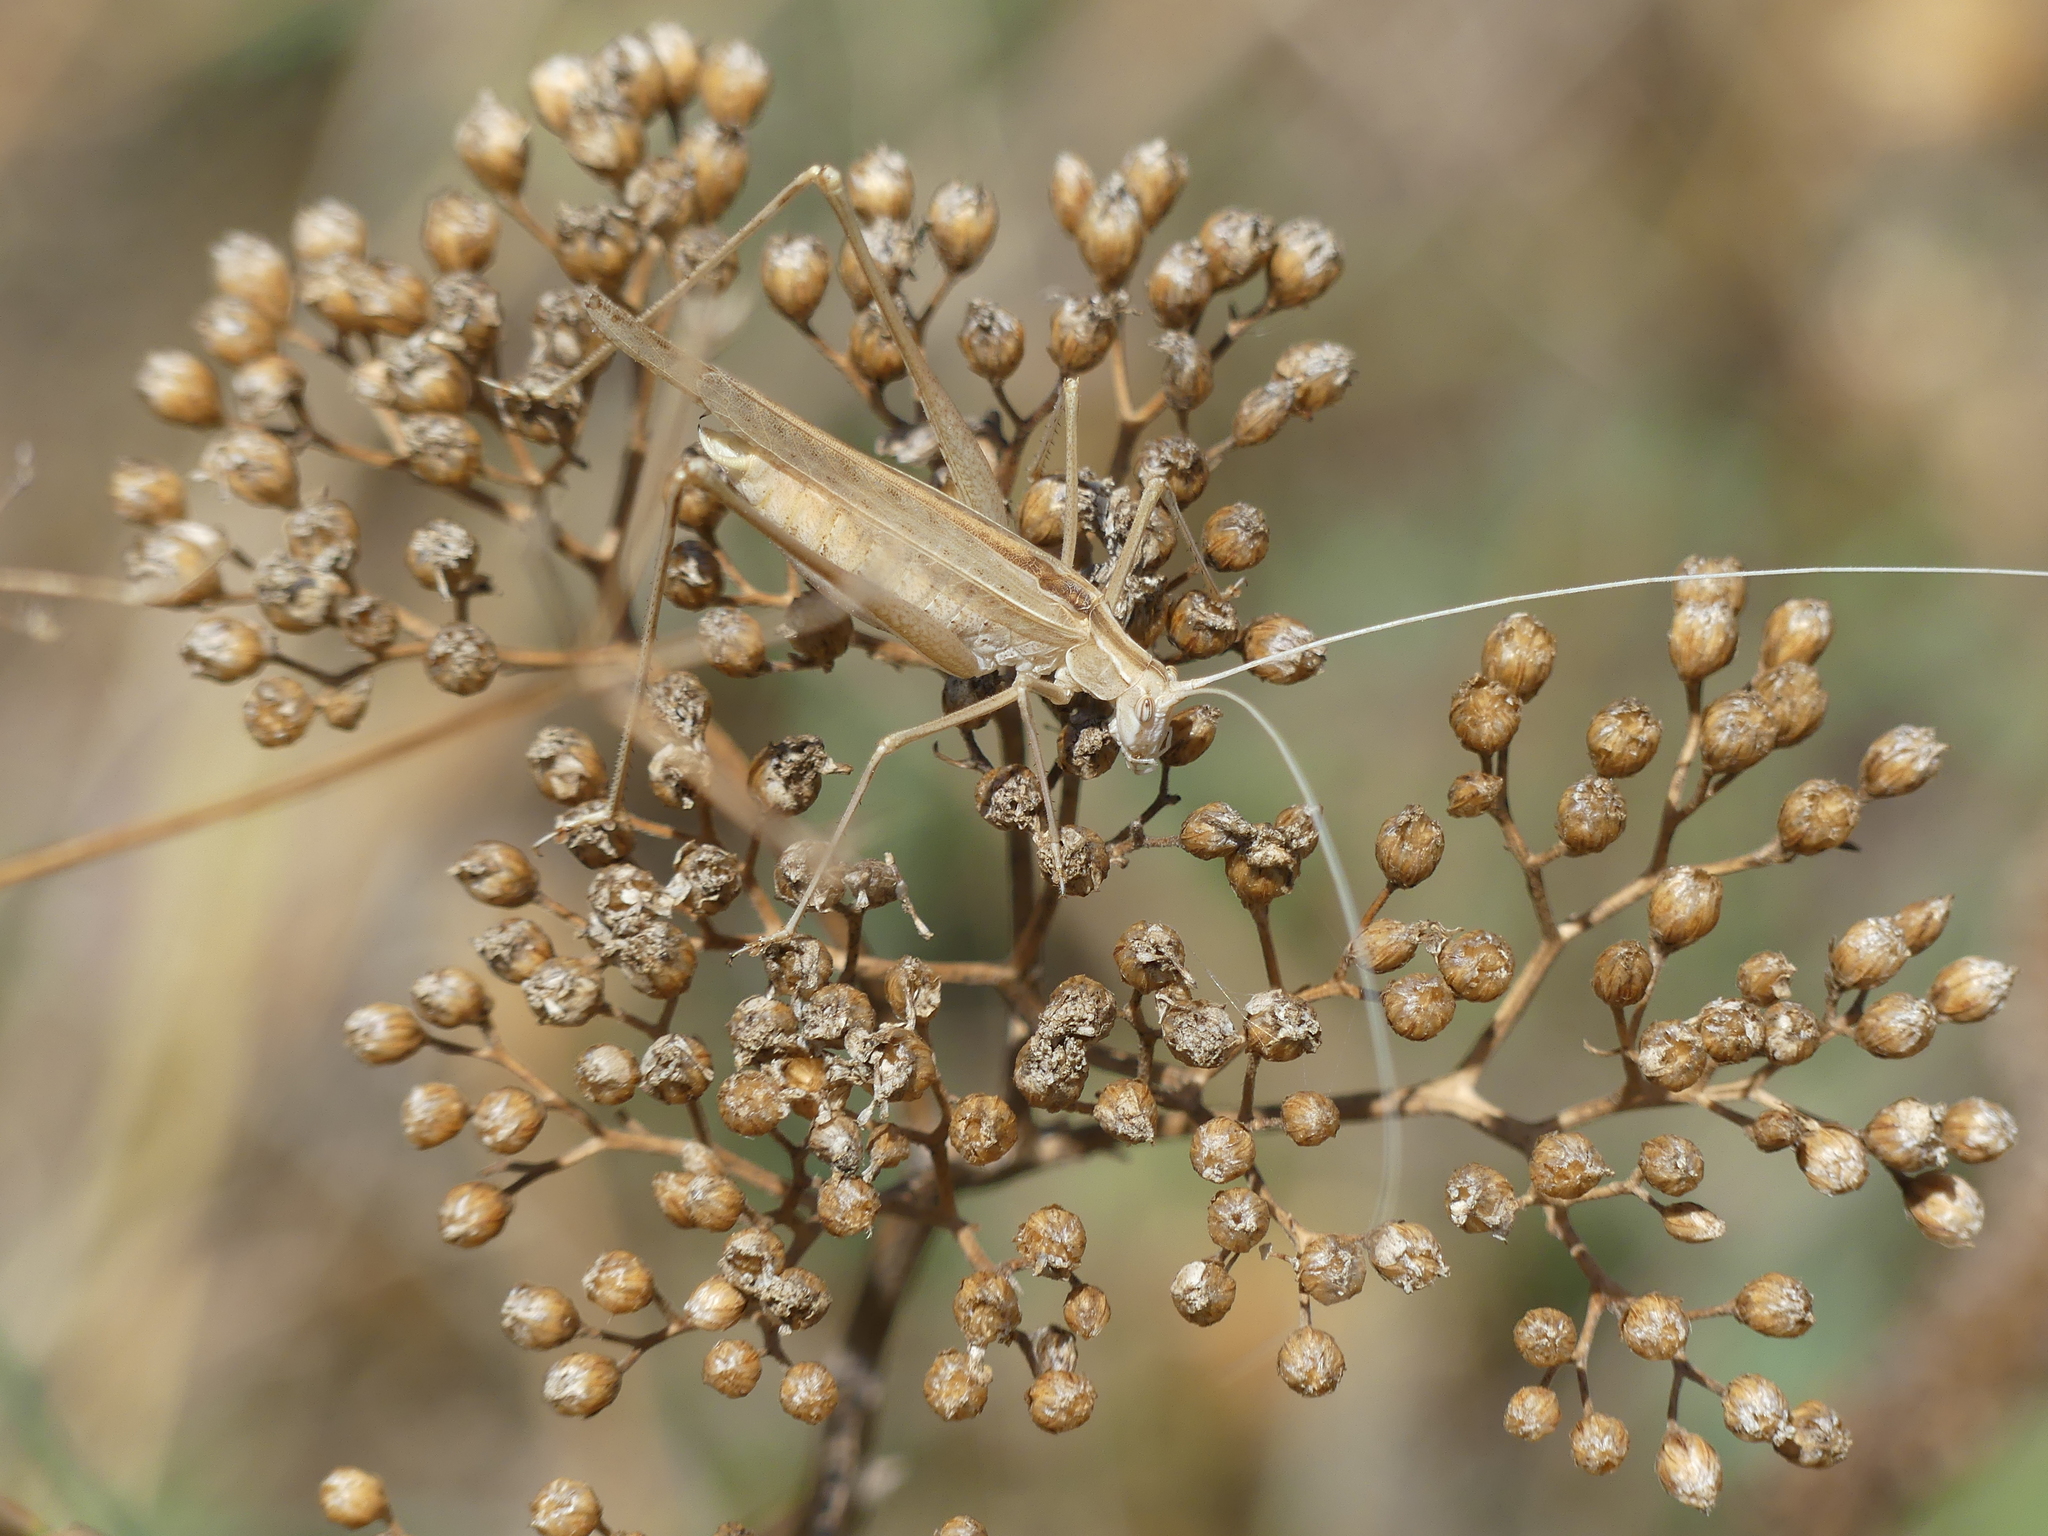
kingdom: Animalia
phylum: Arthropoda
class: Insecta
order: Orthoptera
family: Tettigoniidae
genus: Tylopsis
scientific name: Tylopsis lilifolia
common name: Lily bush-cricket
